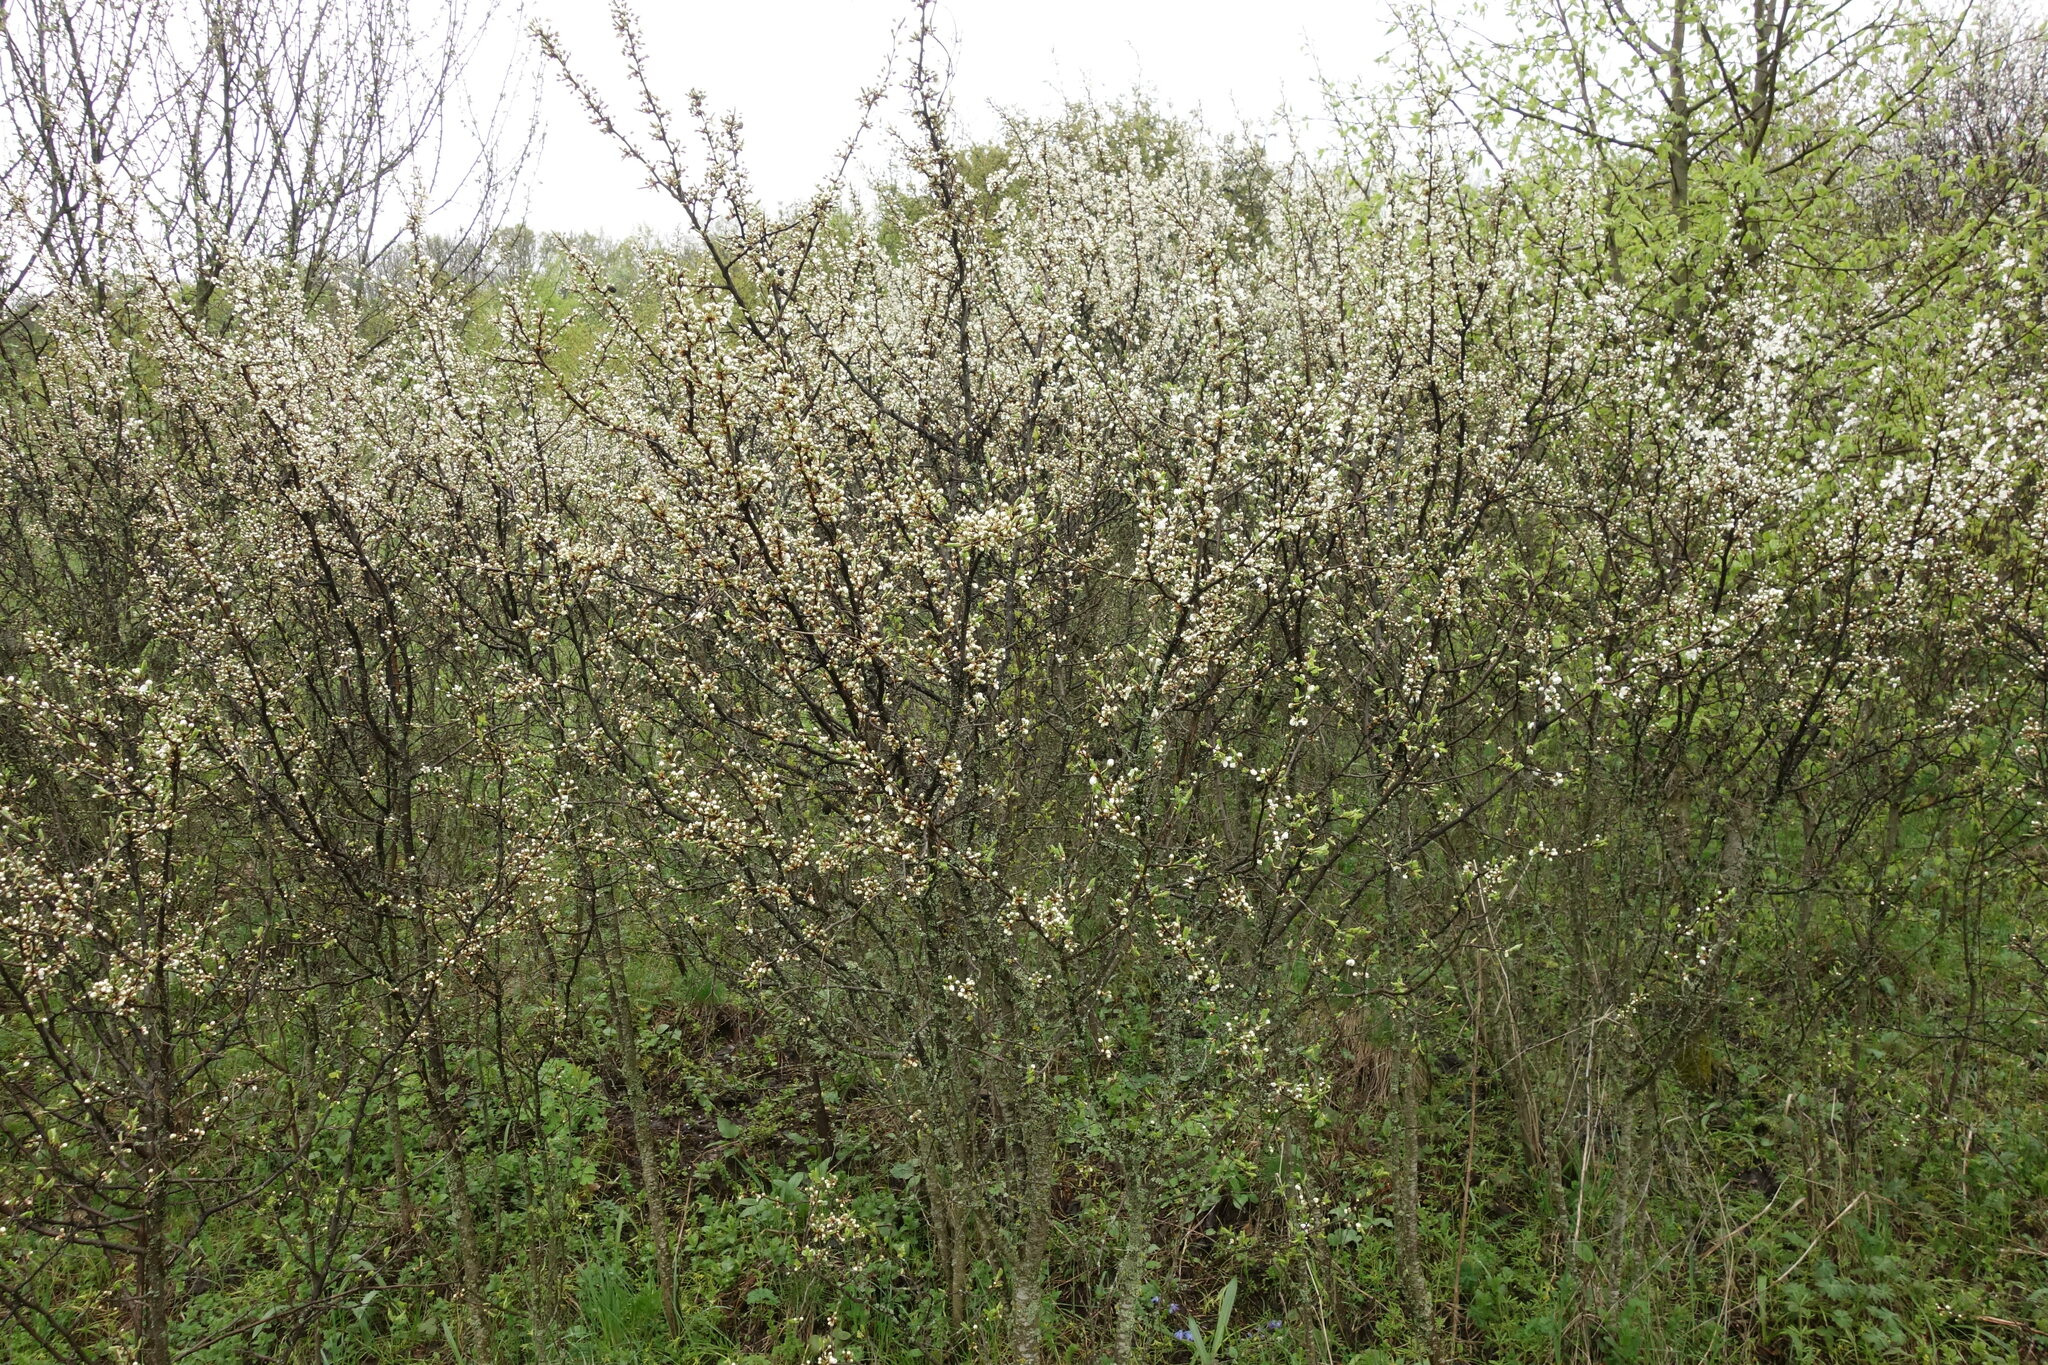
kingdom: Plantae
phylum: Tracheophyta
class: Magnoliopsida
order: Rosales
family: Rosaceae
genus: Prunus
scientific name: Prunus spinosa
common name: Blackthorn
